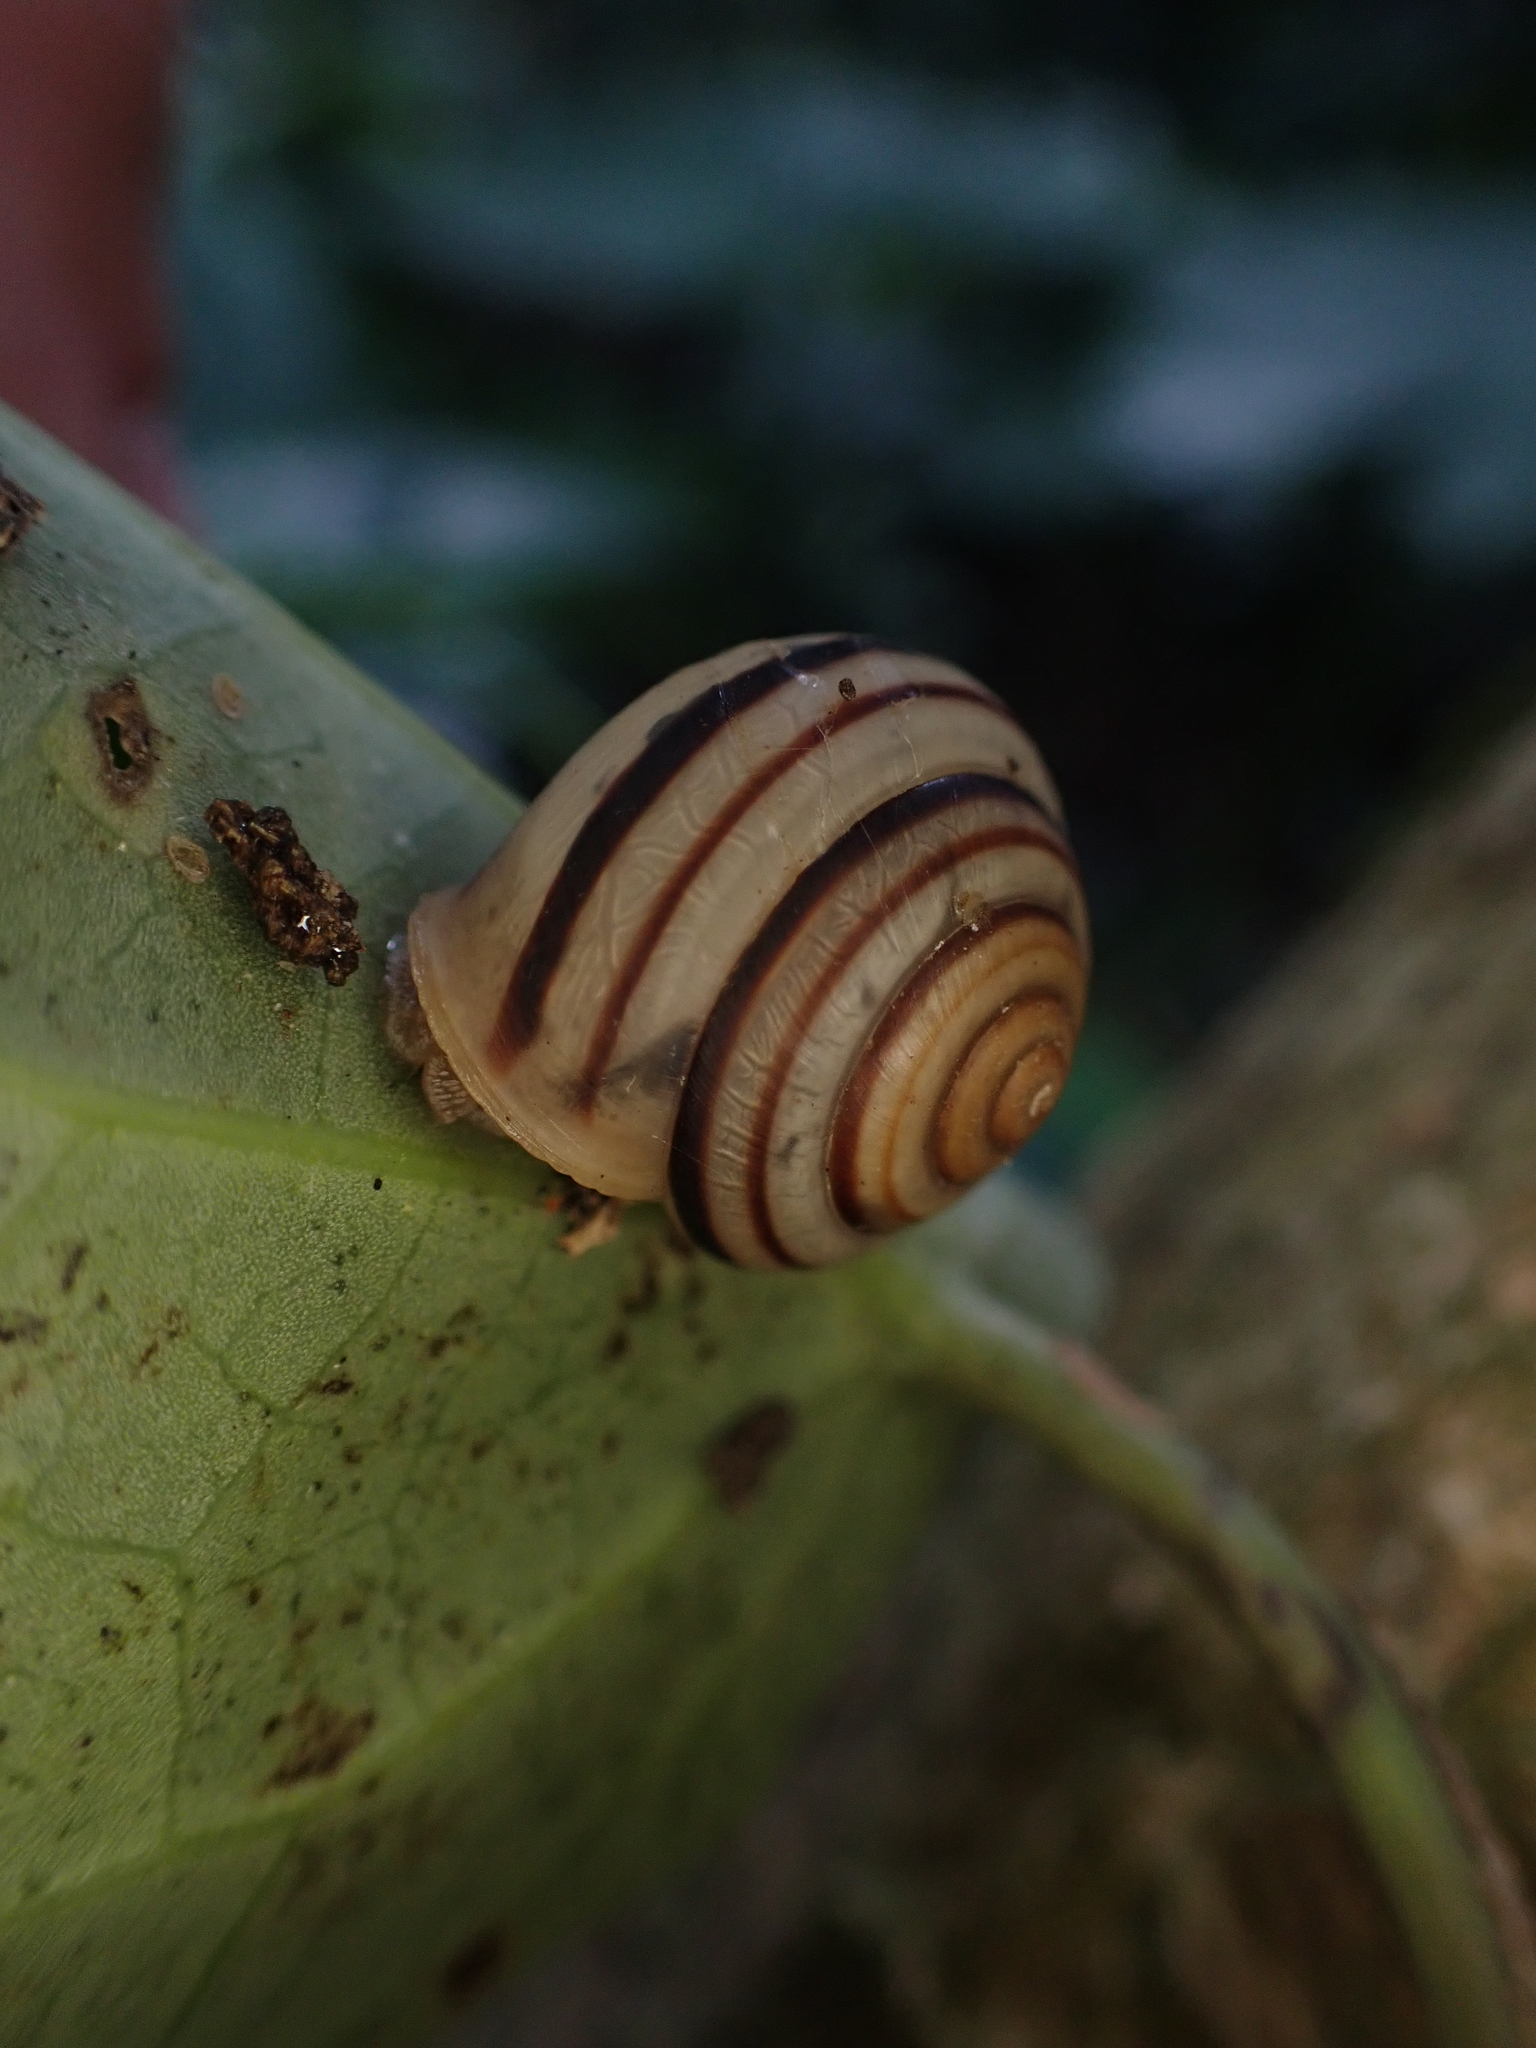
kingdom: Animalia
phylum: Mollusca
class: Gastropoda
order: Stylommatophora
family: Camaenidae
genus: Pancala
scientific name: Pancala batanica
